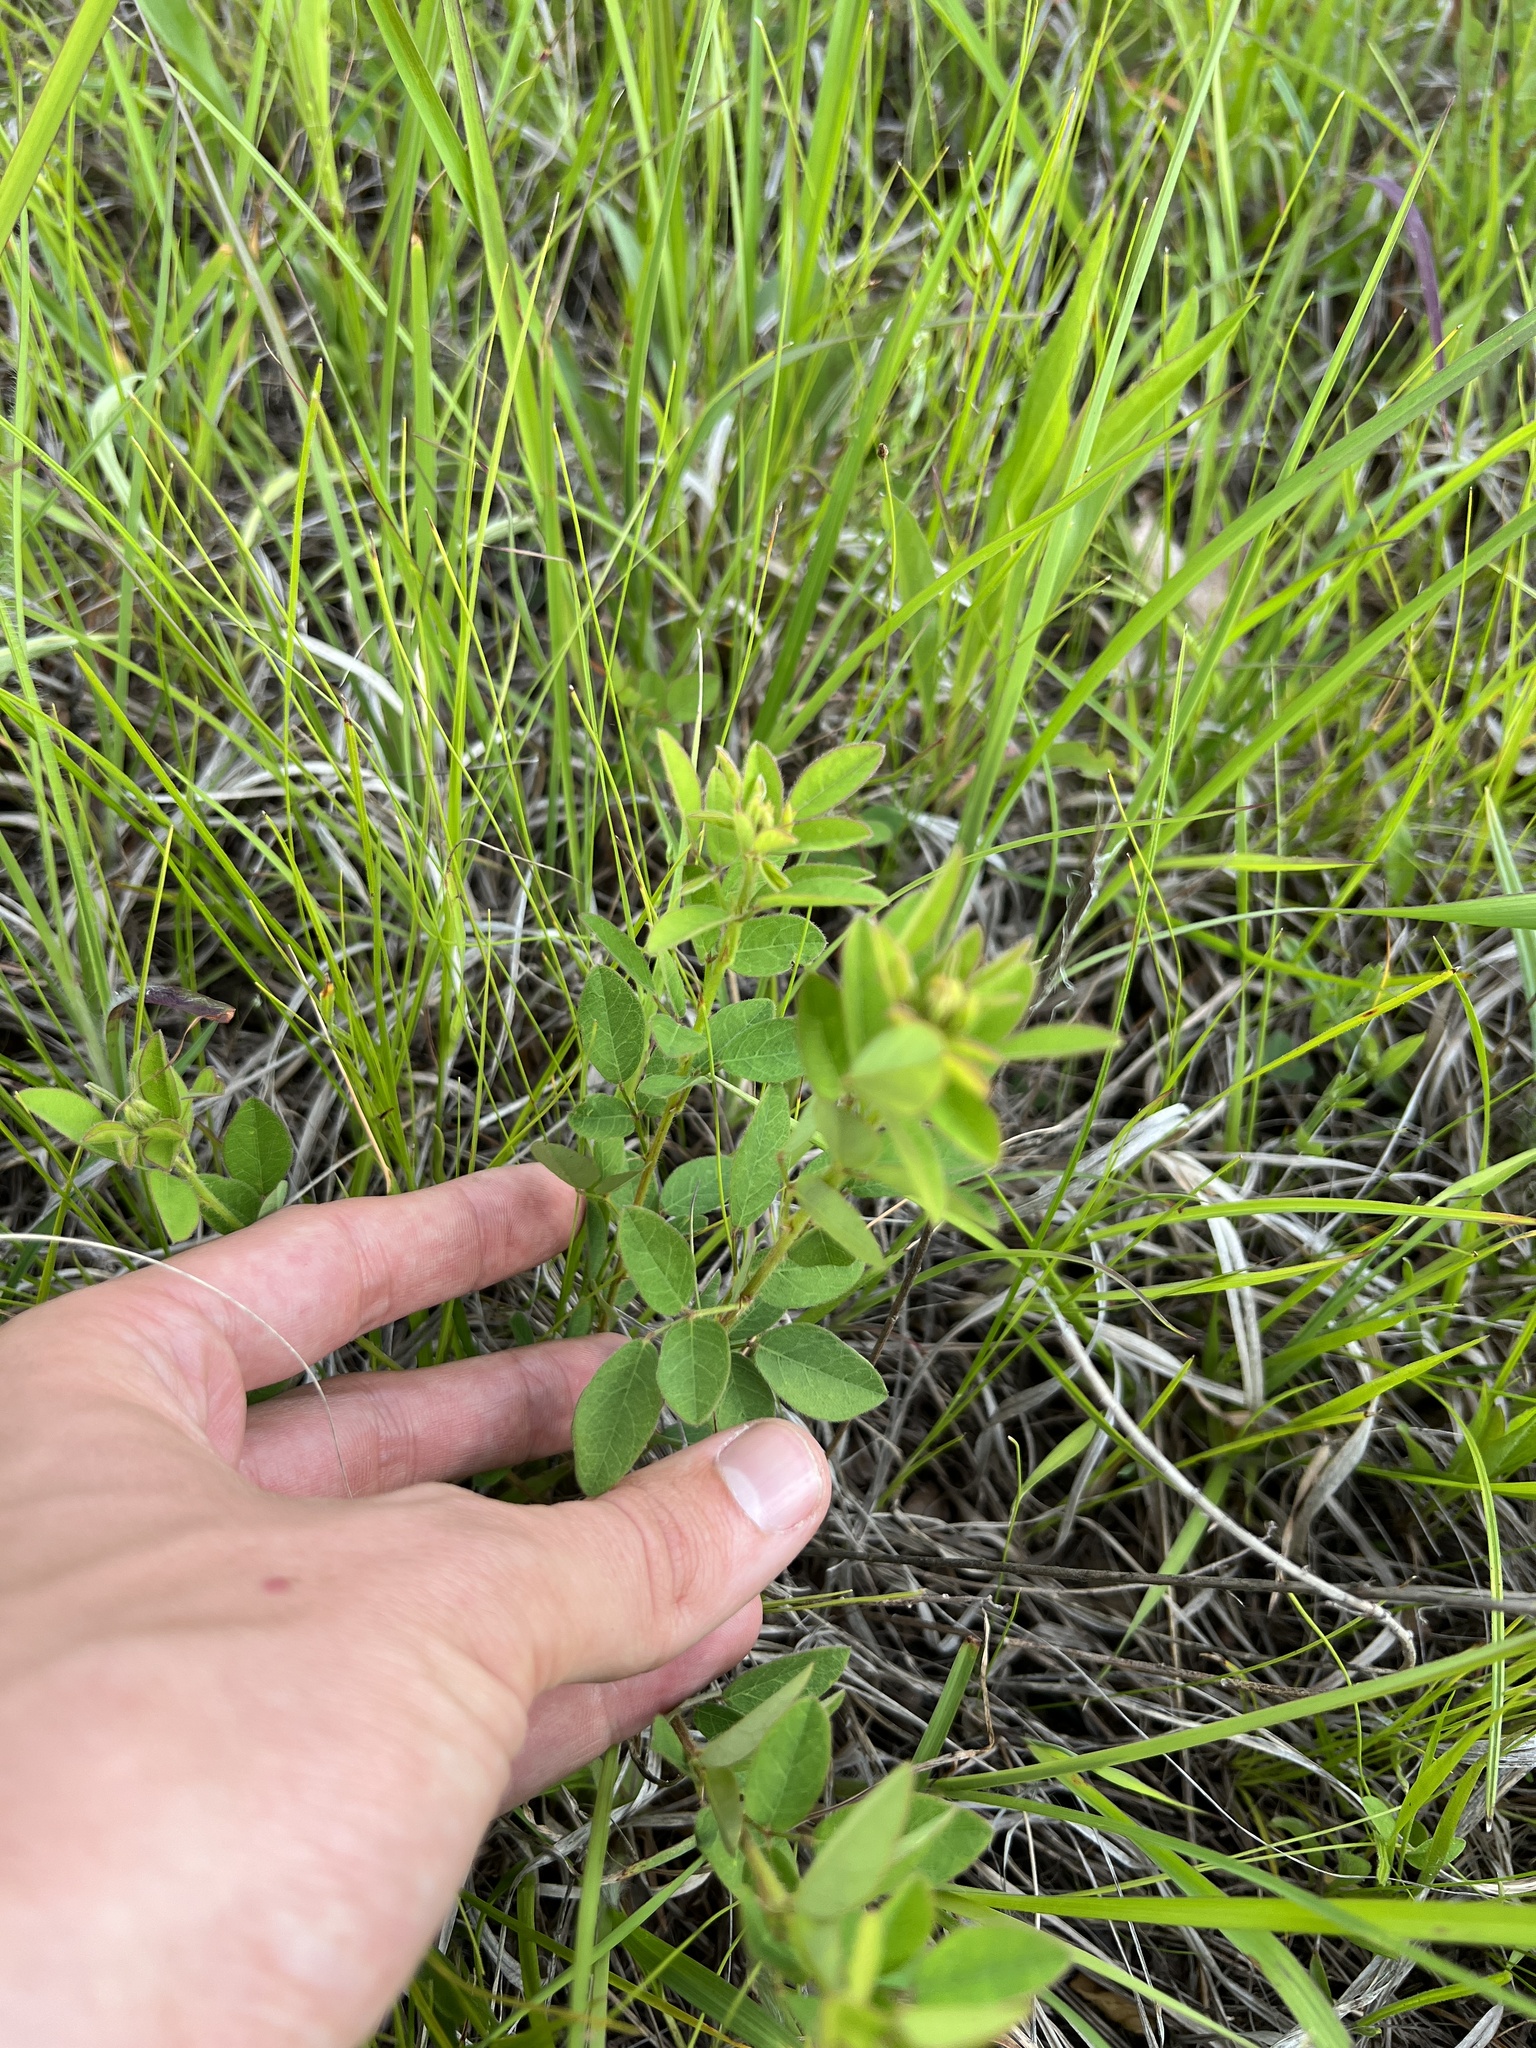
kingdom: Plantae
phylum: Tracheophyta
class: Magnoliopsida
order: Fabales
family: Fabaceae
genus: Desmodium
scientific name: Desmodium ciliare
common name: Hairy small-leaf ticktrefoil
